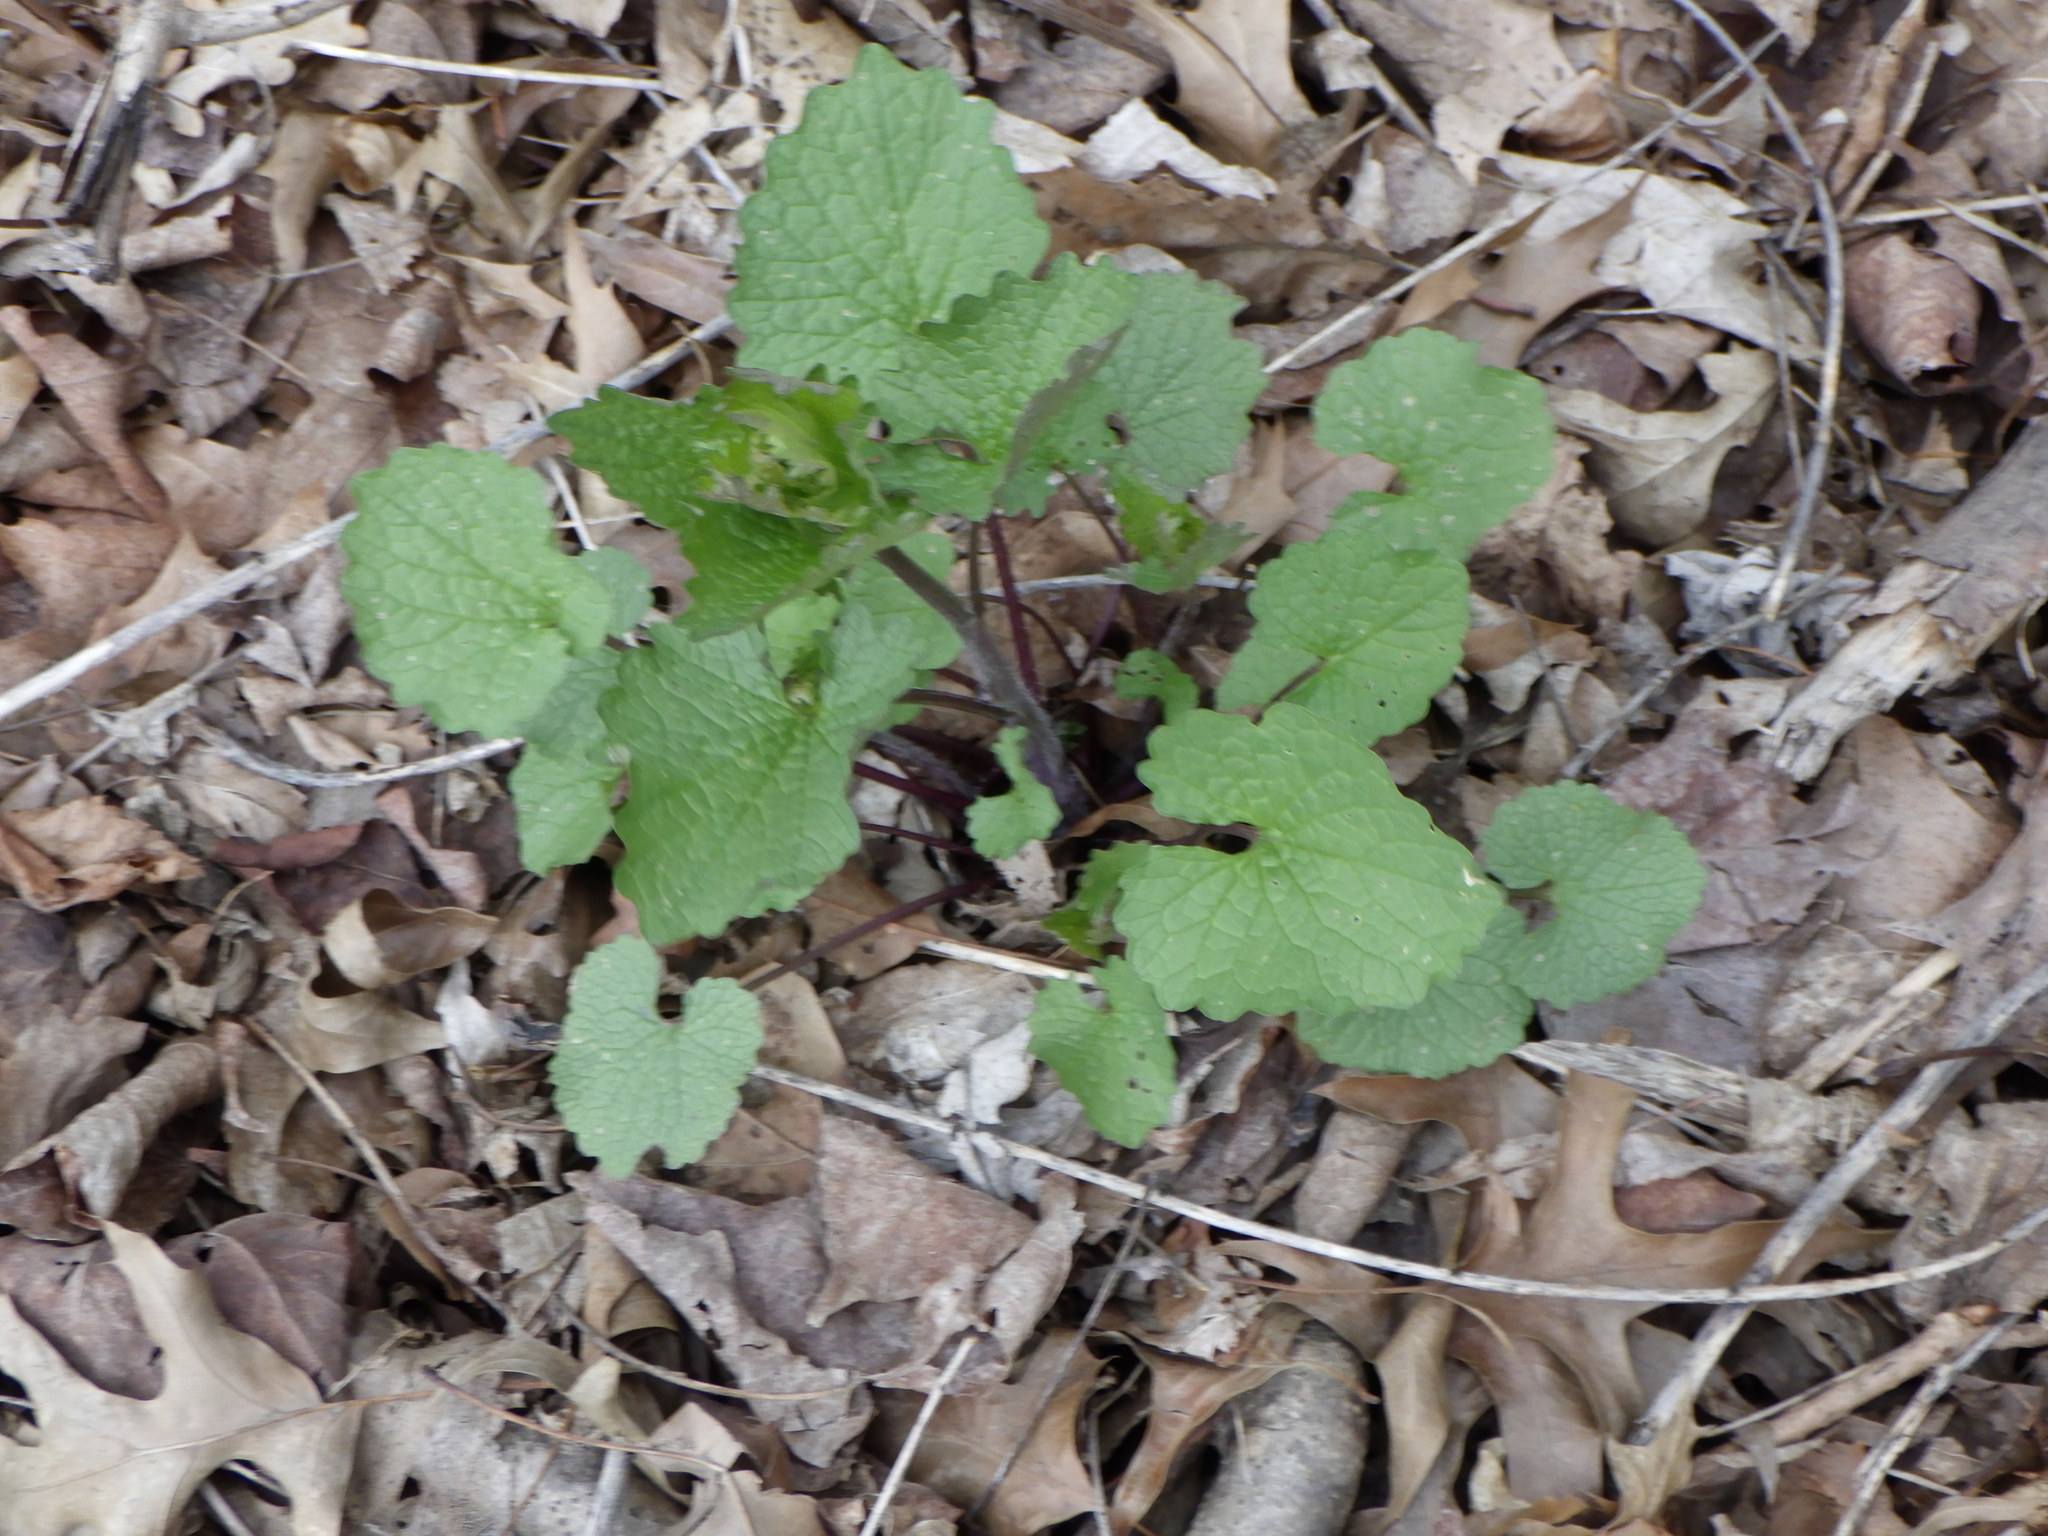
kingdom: Plantae
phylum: Tracheophyta
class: Magnoliopsida
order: Brassicales
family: Brassicaceae
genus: Alliaria
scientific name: Alliaria petiolata
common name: Garlic mustard
